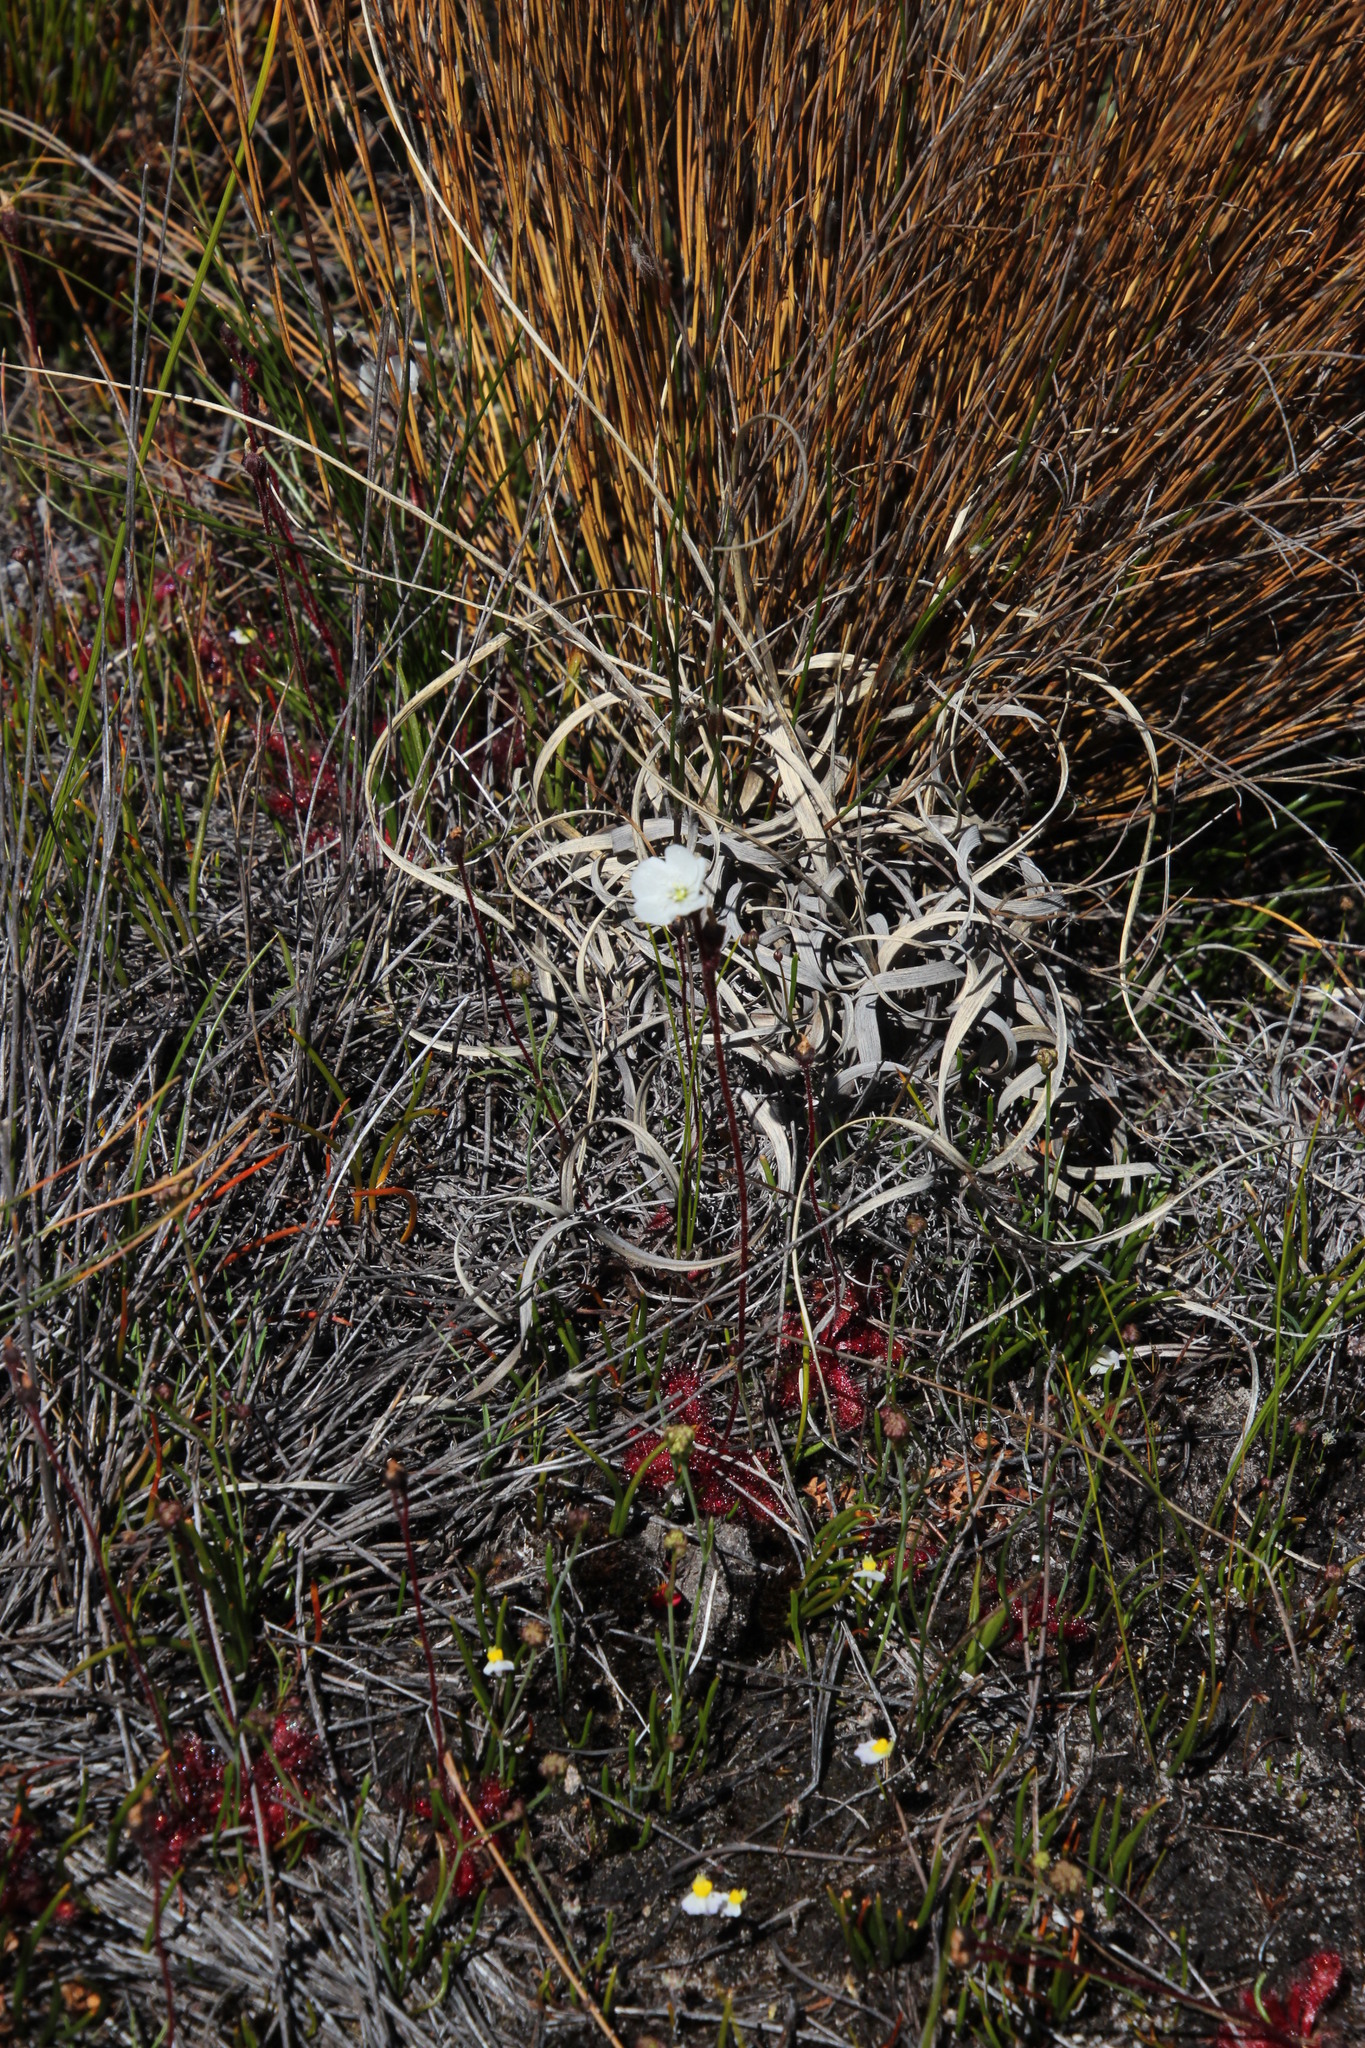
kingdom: Plantae
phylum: Tracheophyta
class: Magnoliopsida
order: Caryophyllales
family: Droseraceae
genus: Drosera
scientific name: Drosera trinervia
